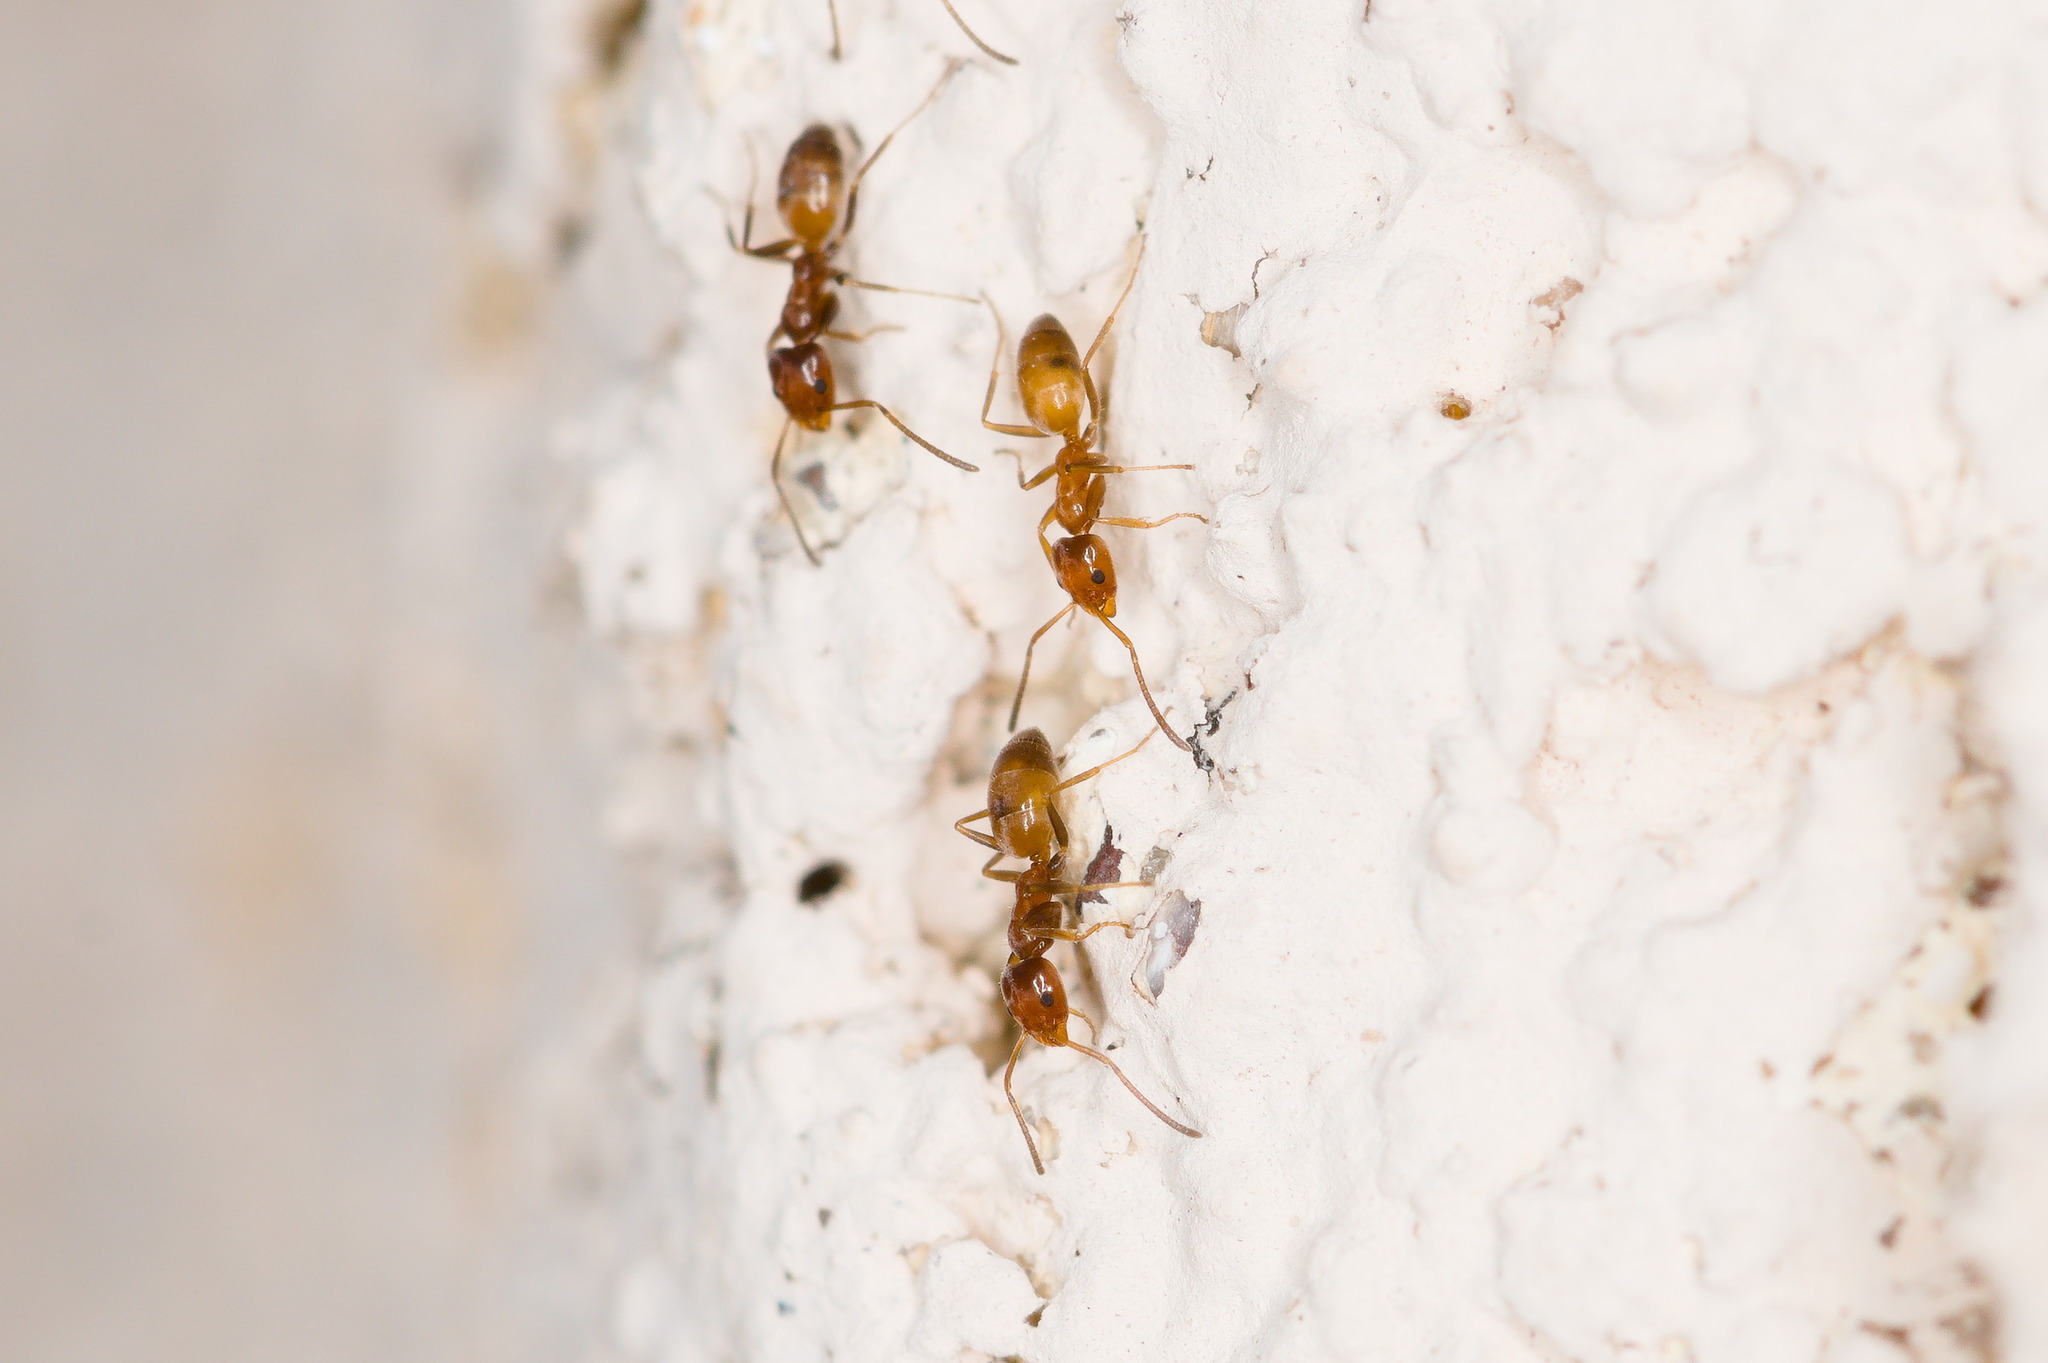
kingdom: Animalia
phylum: Arthropoda
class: Insecta
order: Hymenoptera
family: Formicidae
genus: Forelius
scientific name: Forelius mccooki
